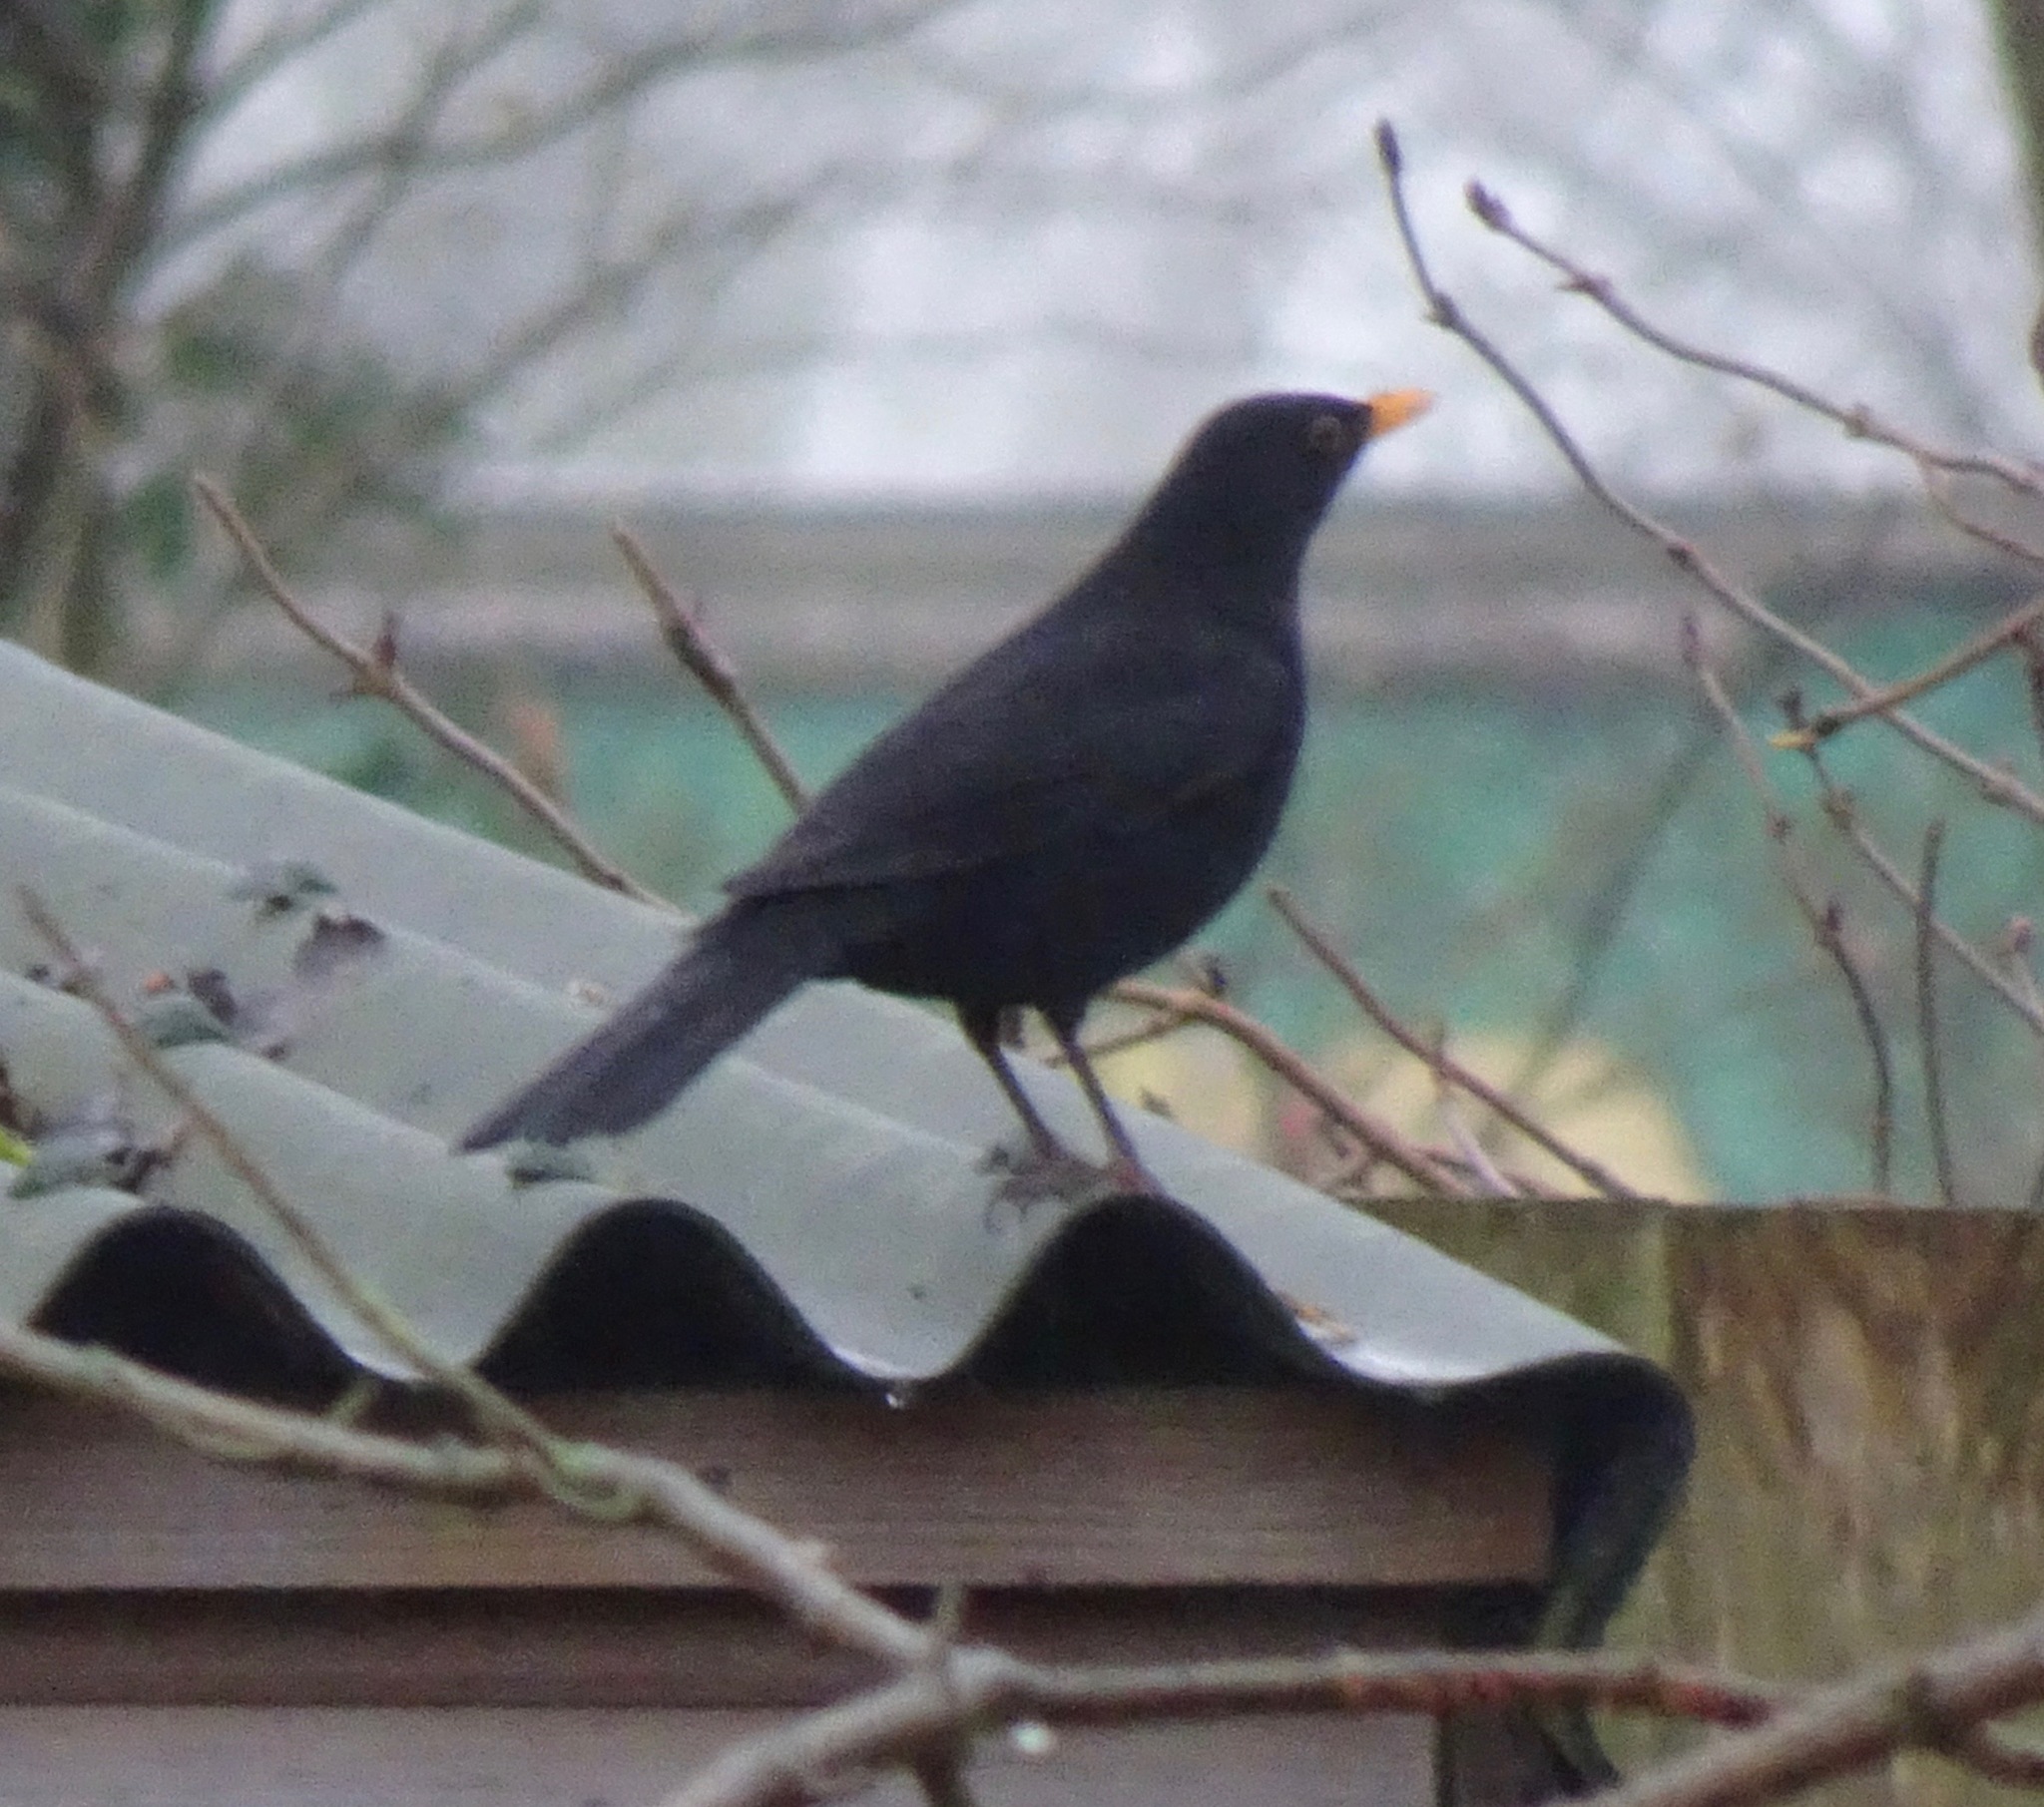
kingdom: Animalia
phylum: Chordata
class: Aves
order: Passeriformes
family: Turdidae
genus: Turdus
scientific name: Turdus merula
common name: Common blackbird
